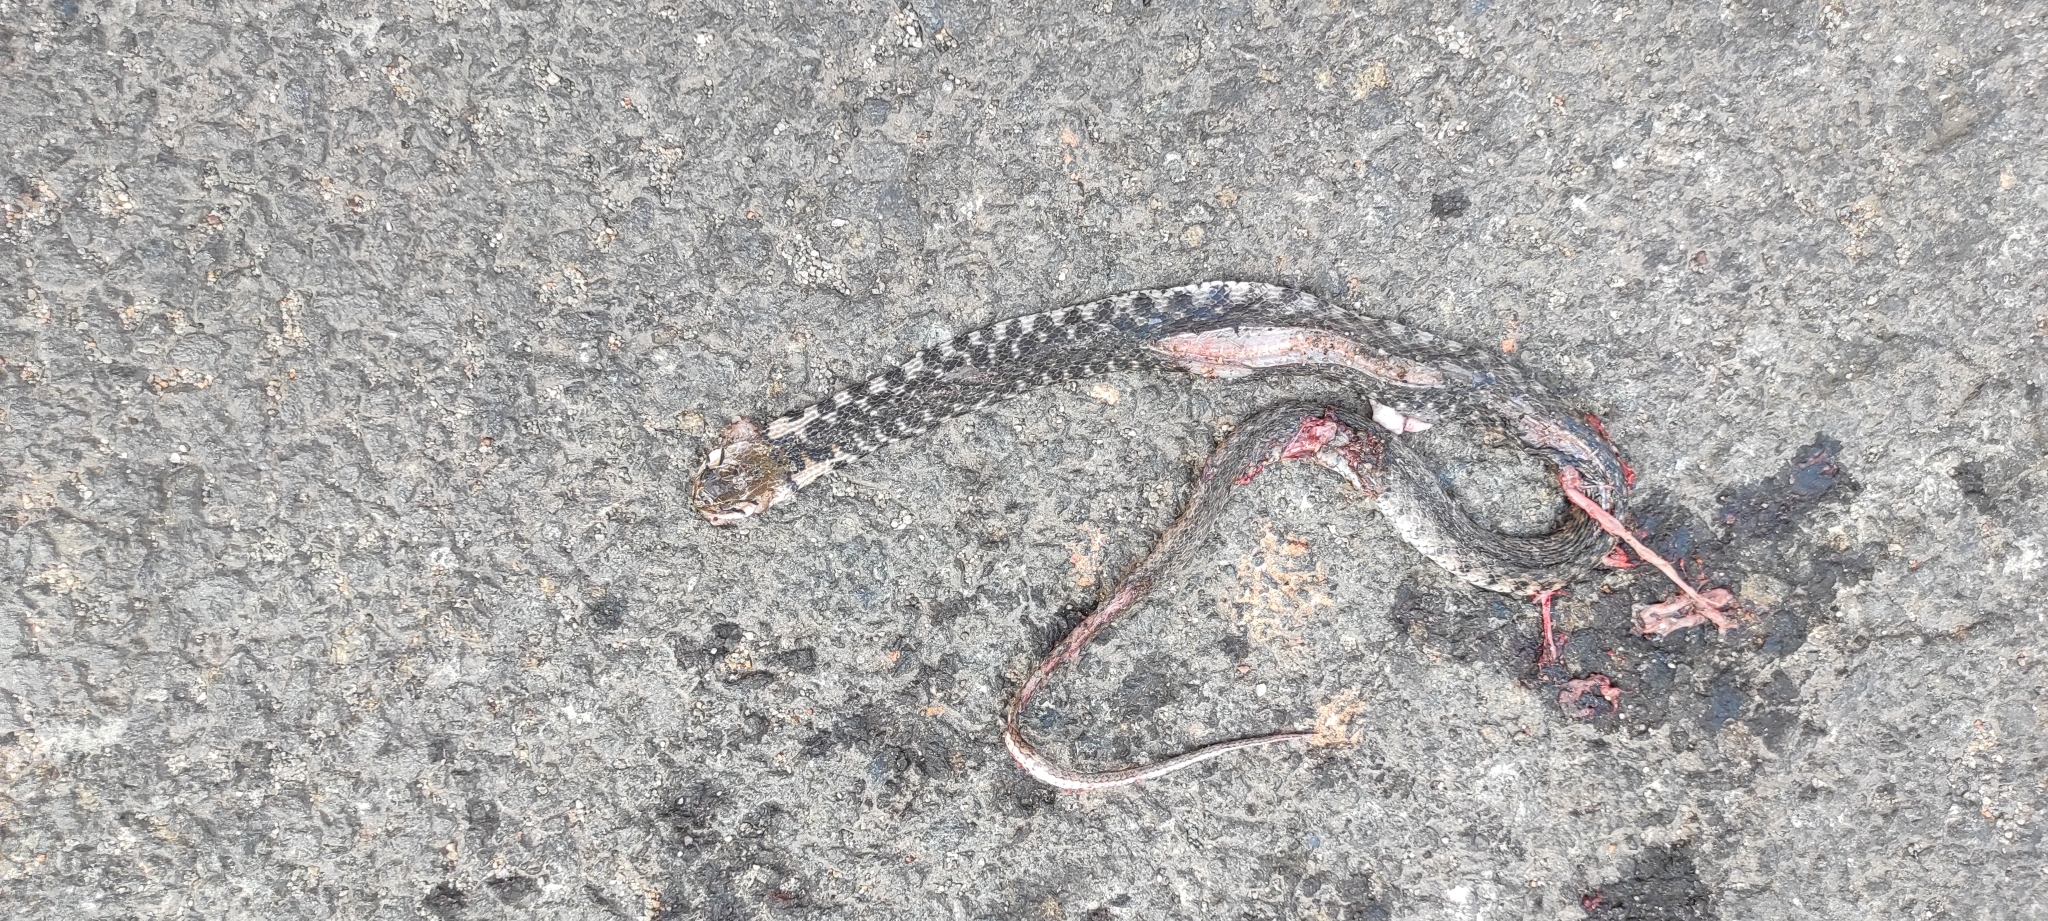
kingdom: Animalia
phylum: Chordata
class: Squamata
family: Colubridae
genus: Fowlea
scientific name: Fowlea piscator
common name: Asiatic water snake
